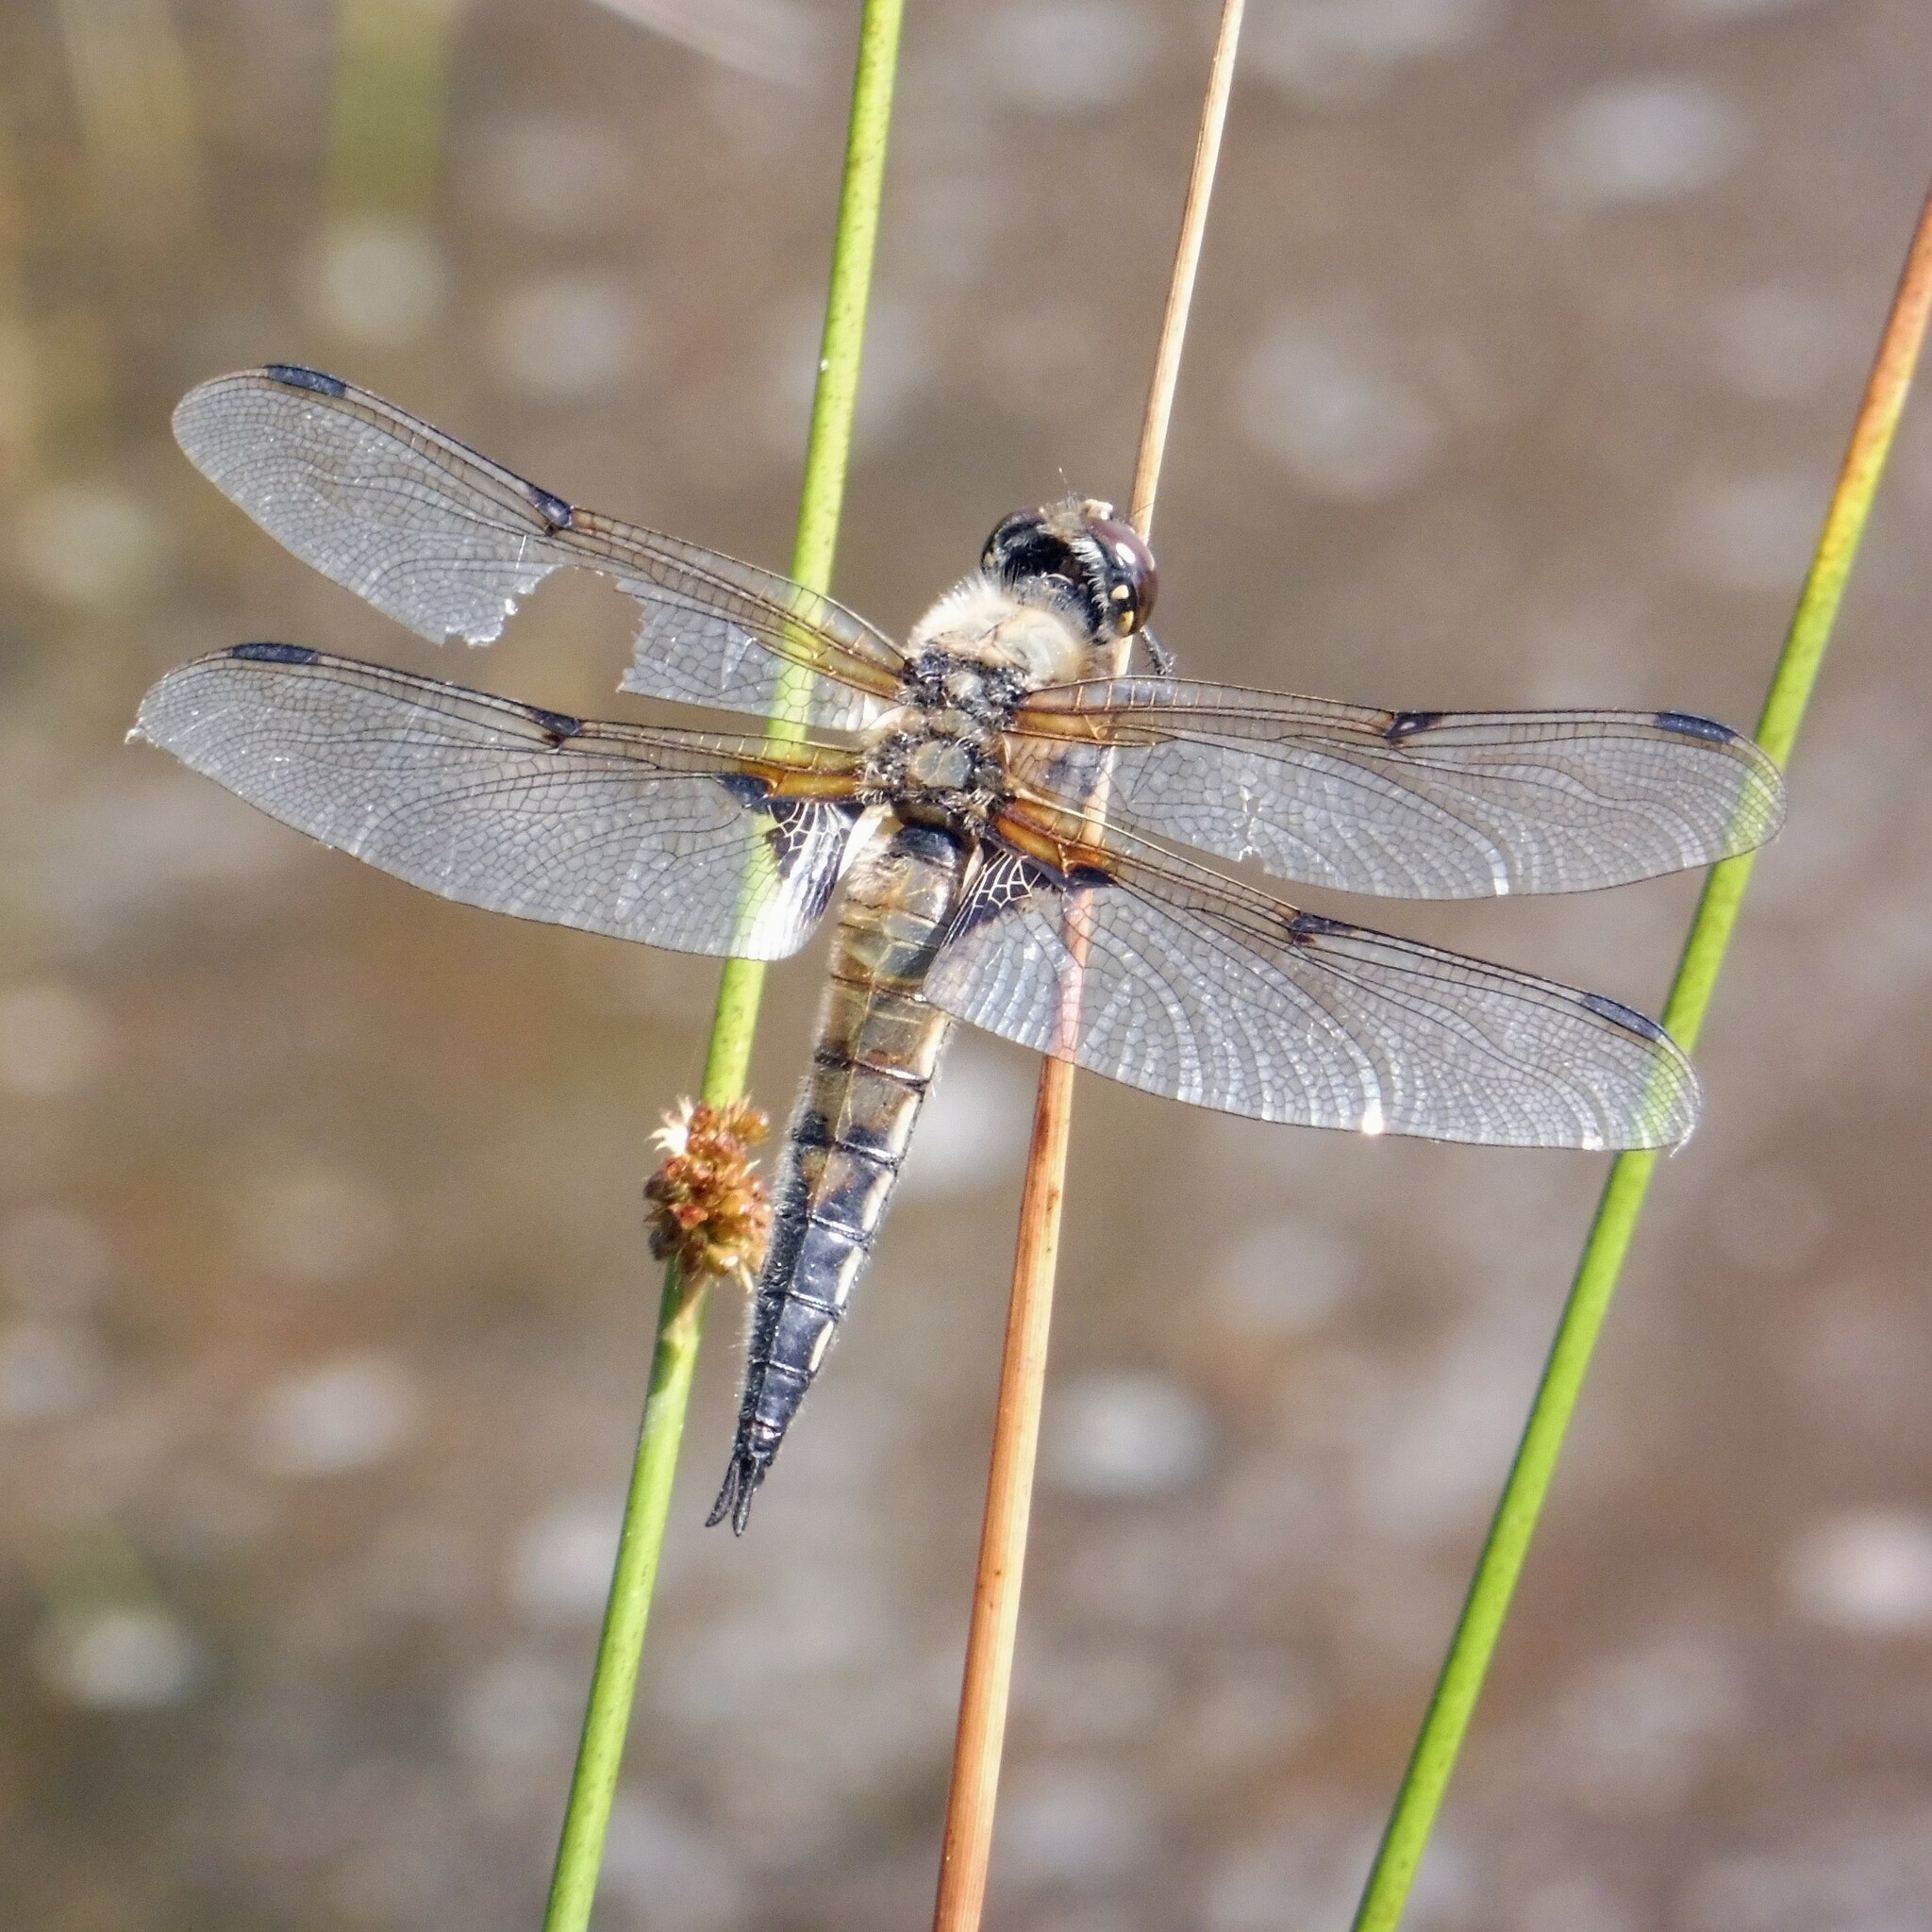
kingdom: Animalia
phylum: Arthropoda
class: Insecta
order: Odonata
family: Libellulidae
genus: Libellula
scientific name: Libellula quadrimaculata
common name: Four-spotted chaser
